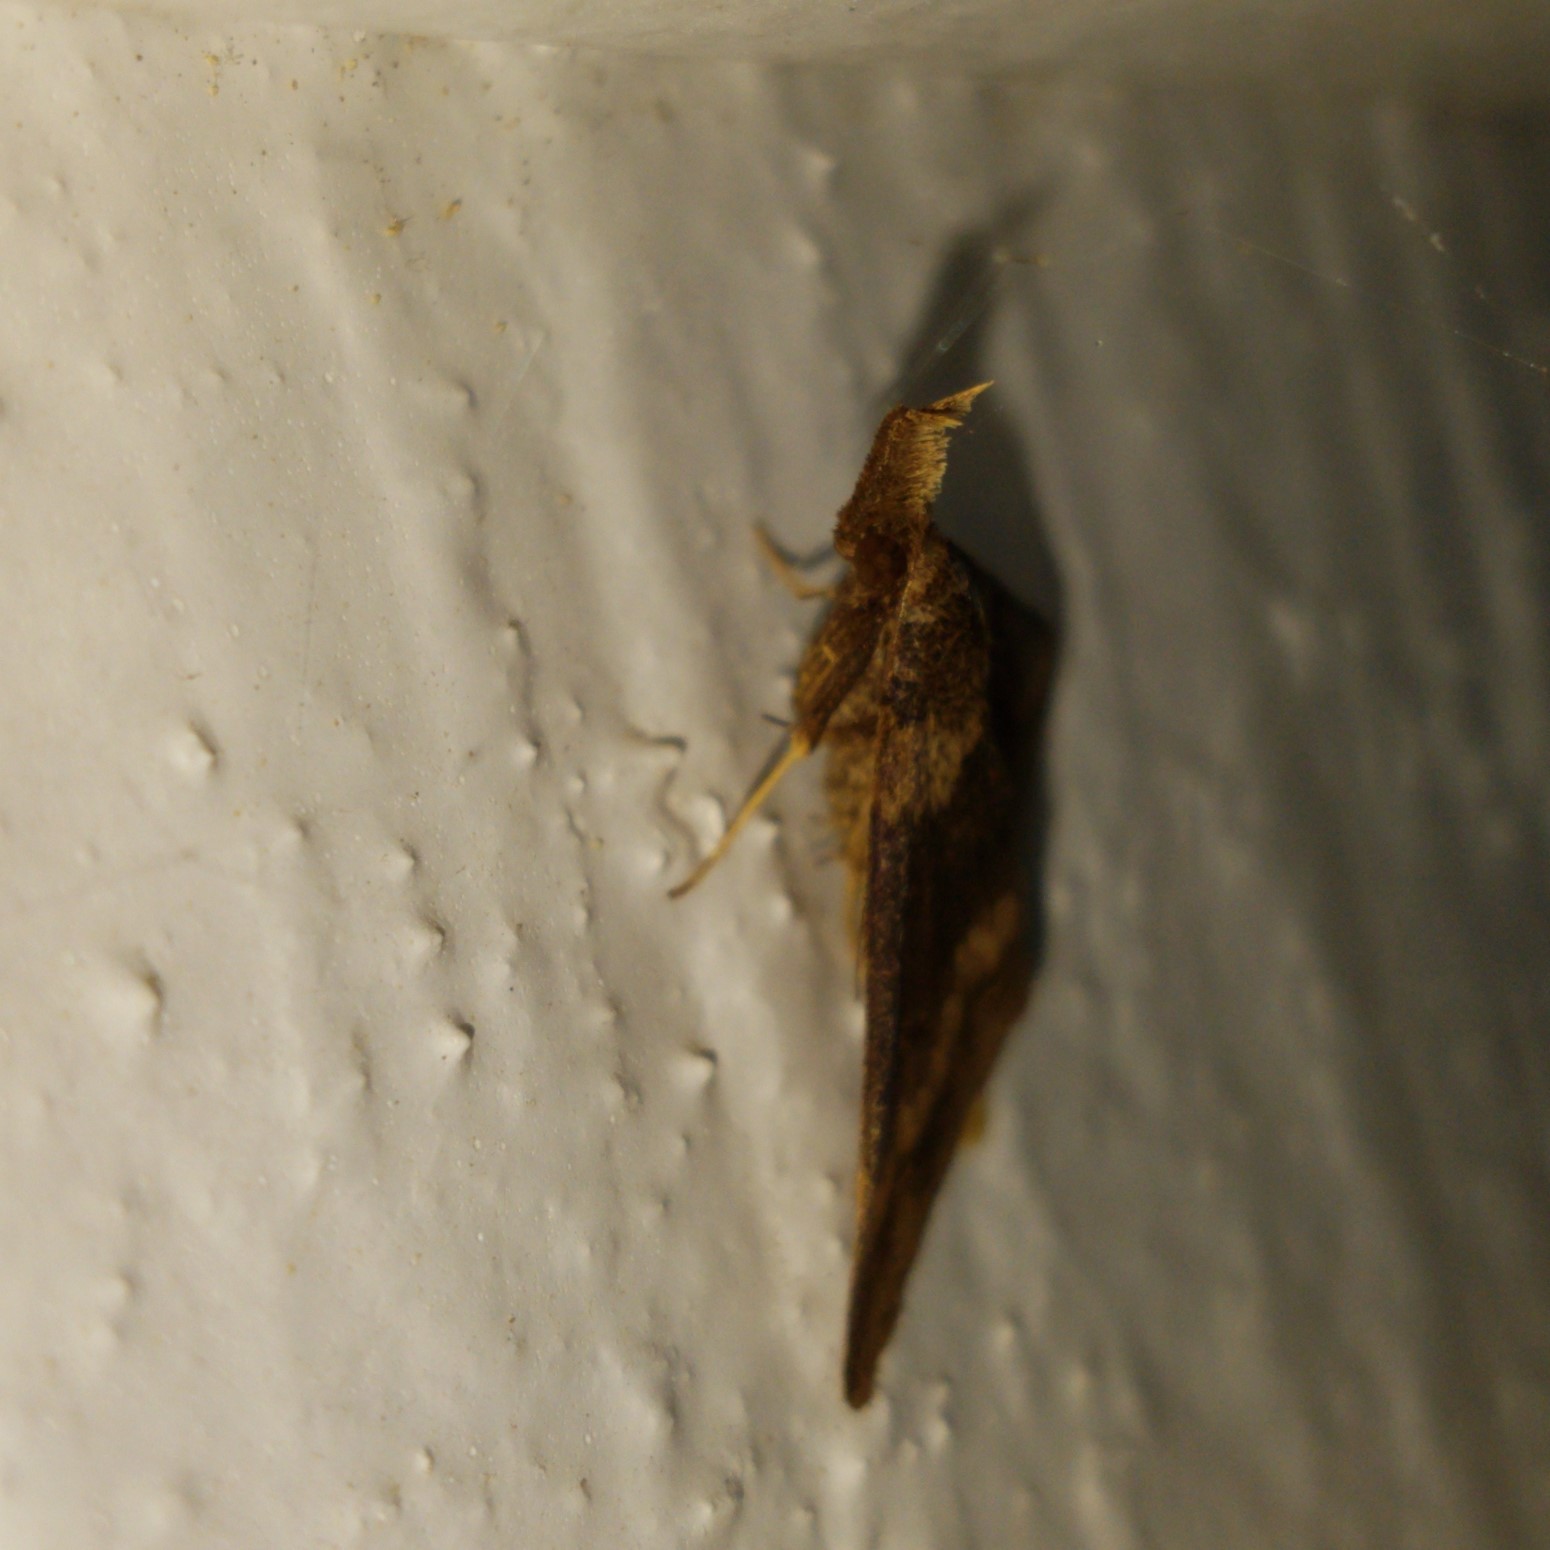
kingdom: Animalia
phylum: Arthropoda
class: Insecta
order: Lepidoptera
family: Erebidae
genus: Renia
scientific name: Renia discoloralis
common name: Discolored renia moth
